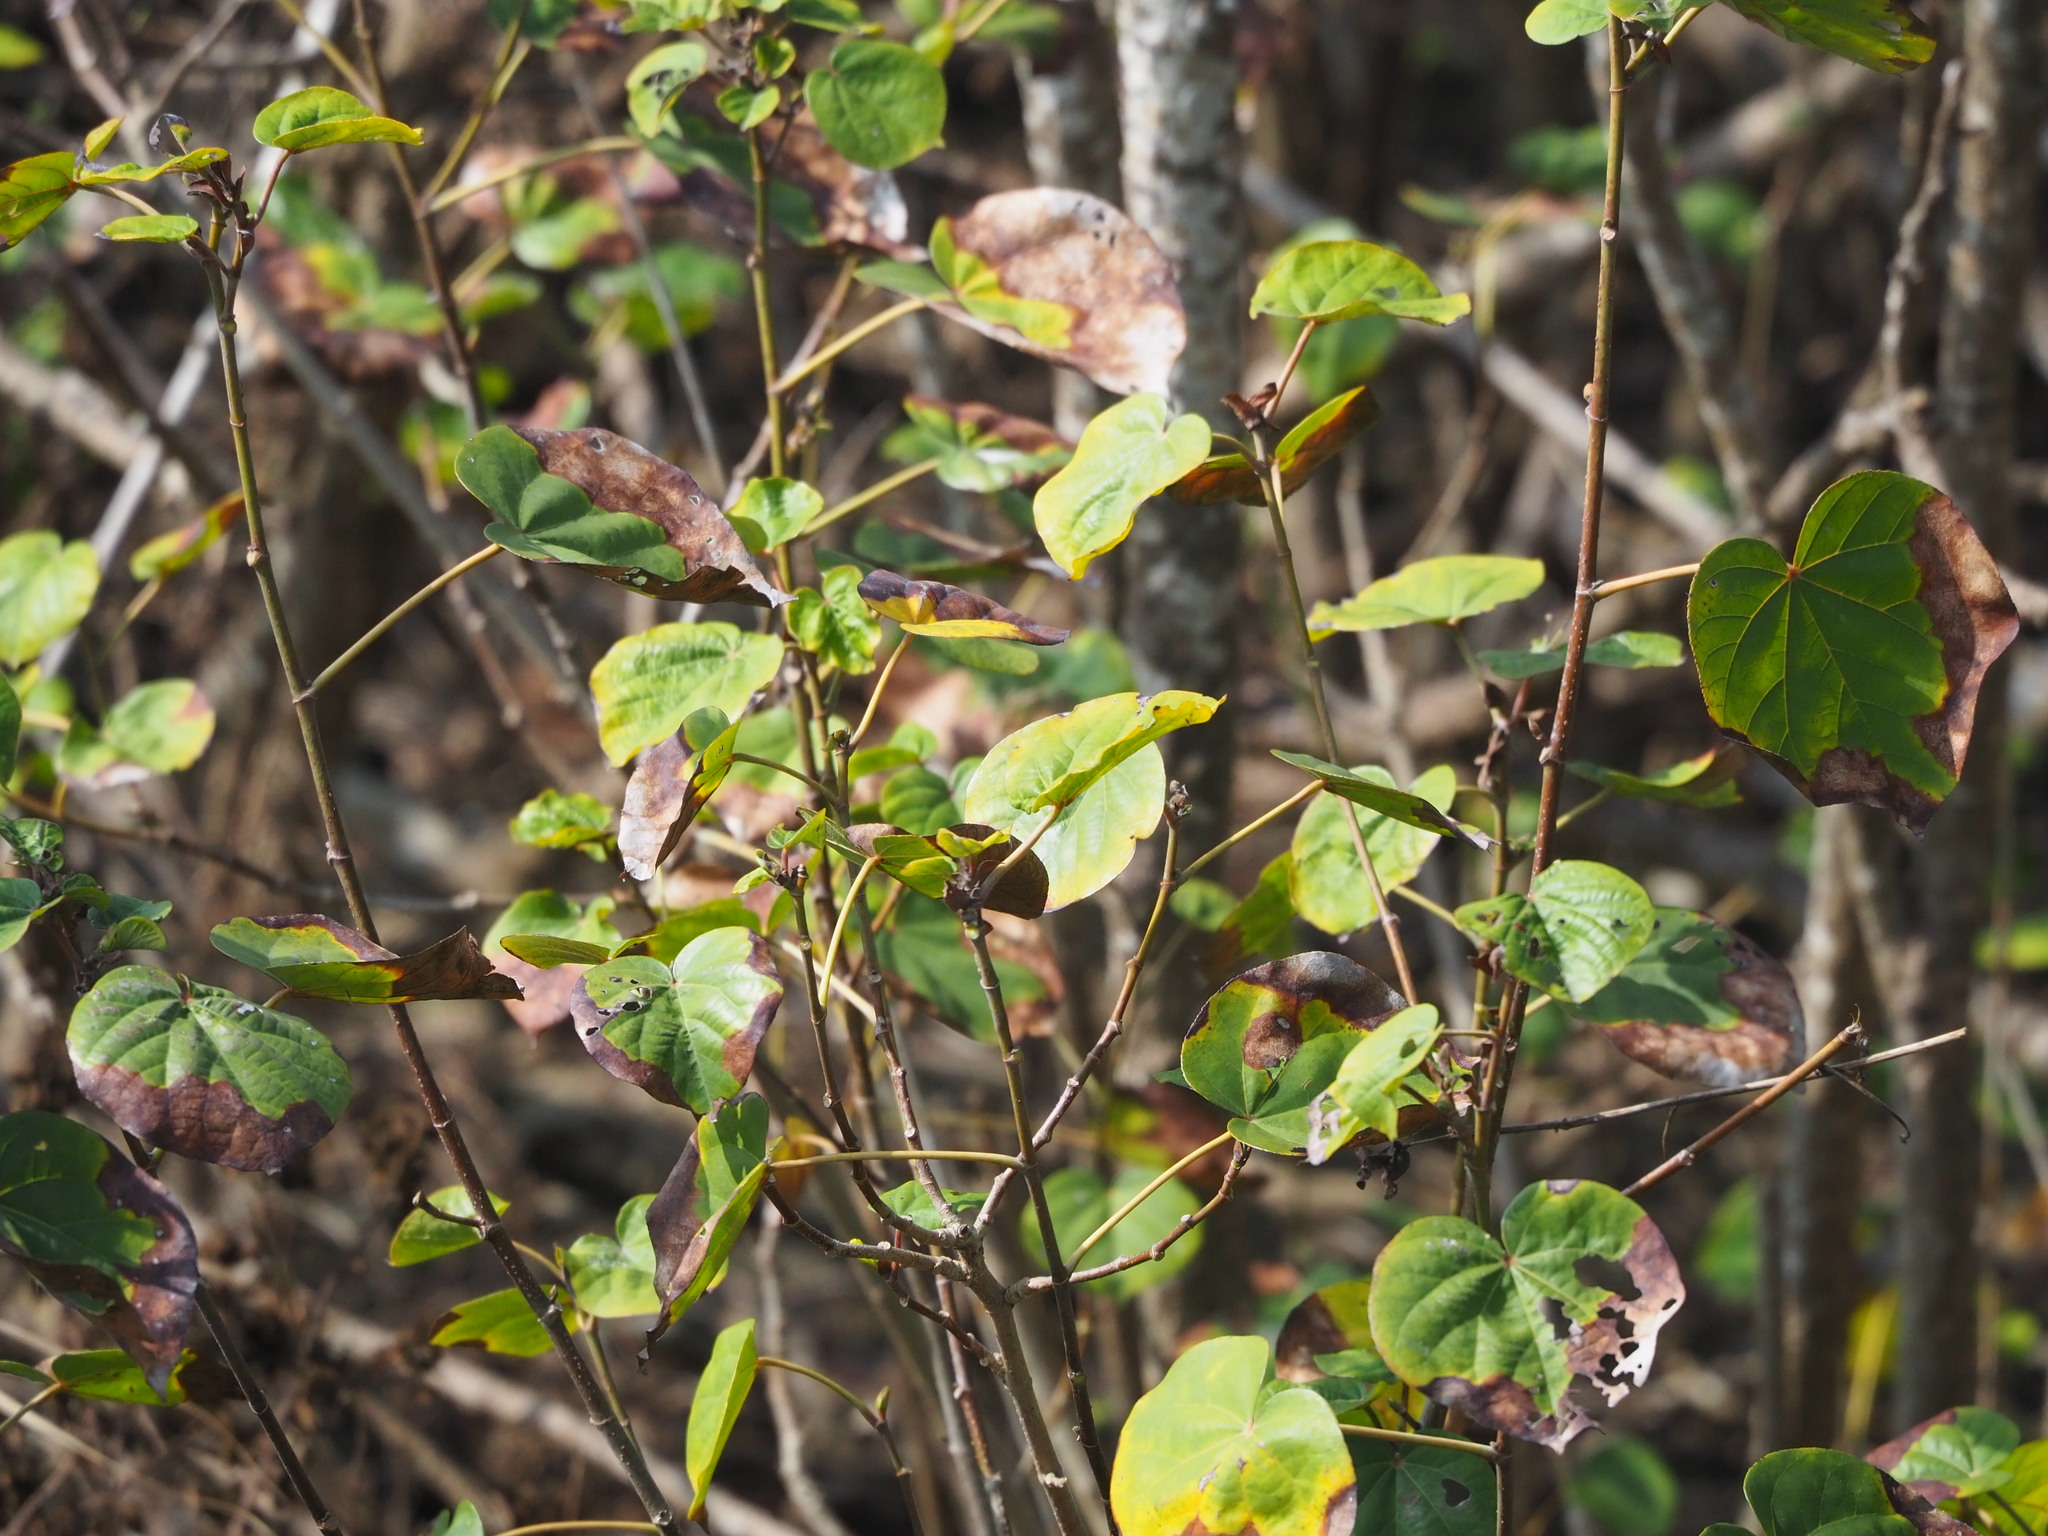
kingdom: Plantae
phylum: Tracheophyta
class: Magnoliopsida
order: Malvales
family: Malvaceae
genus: Talipariti
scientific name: Talipariti tiliaceum
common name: Sea hibiscus
